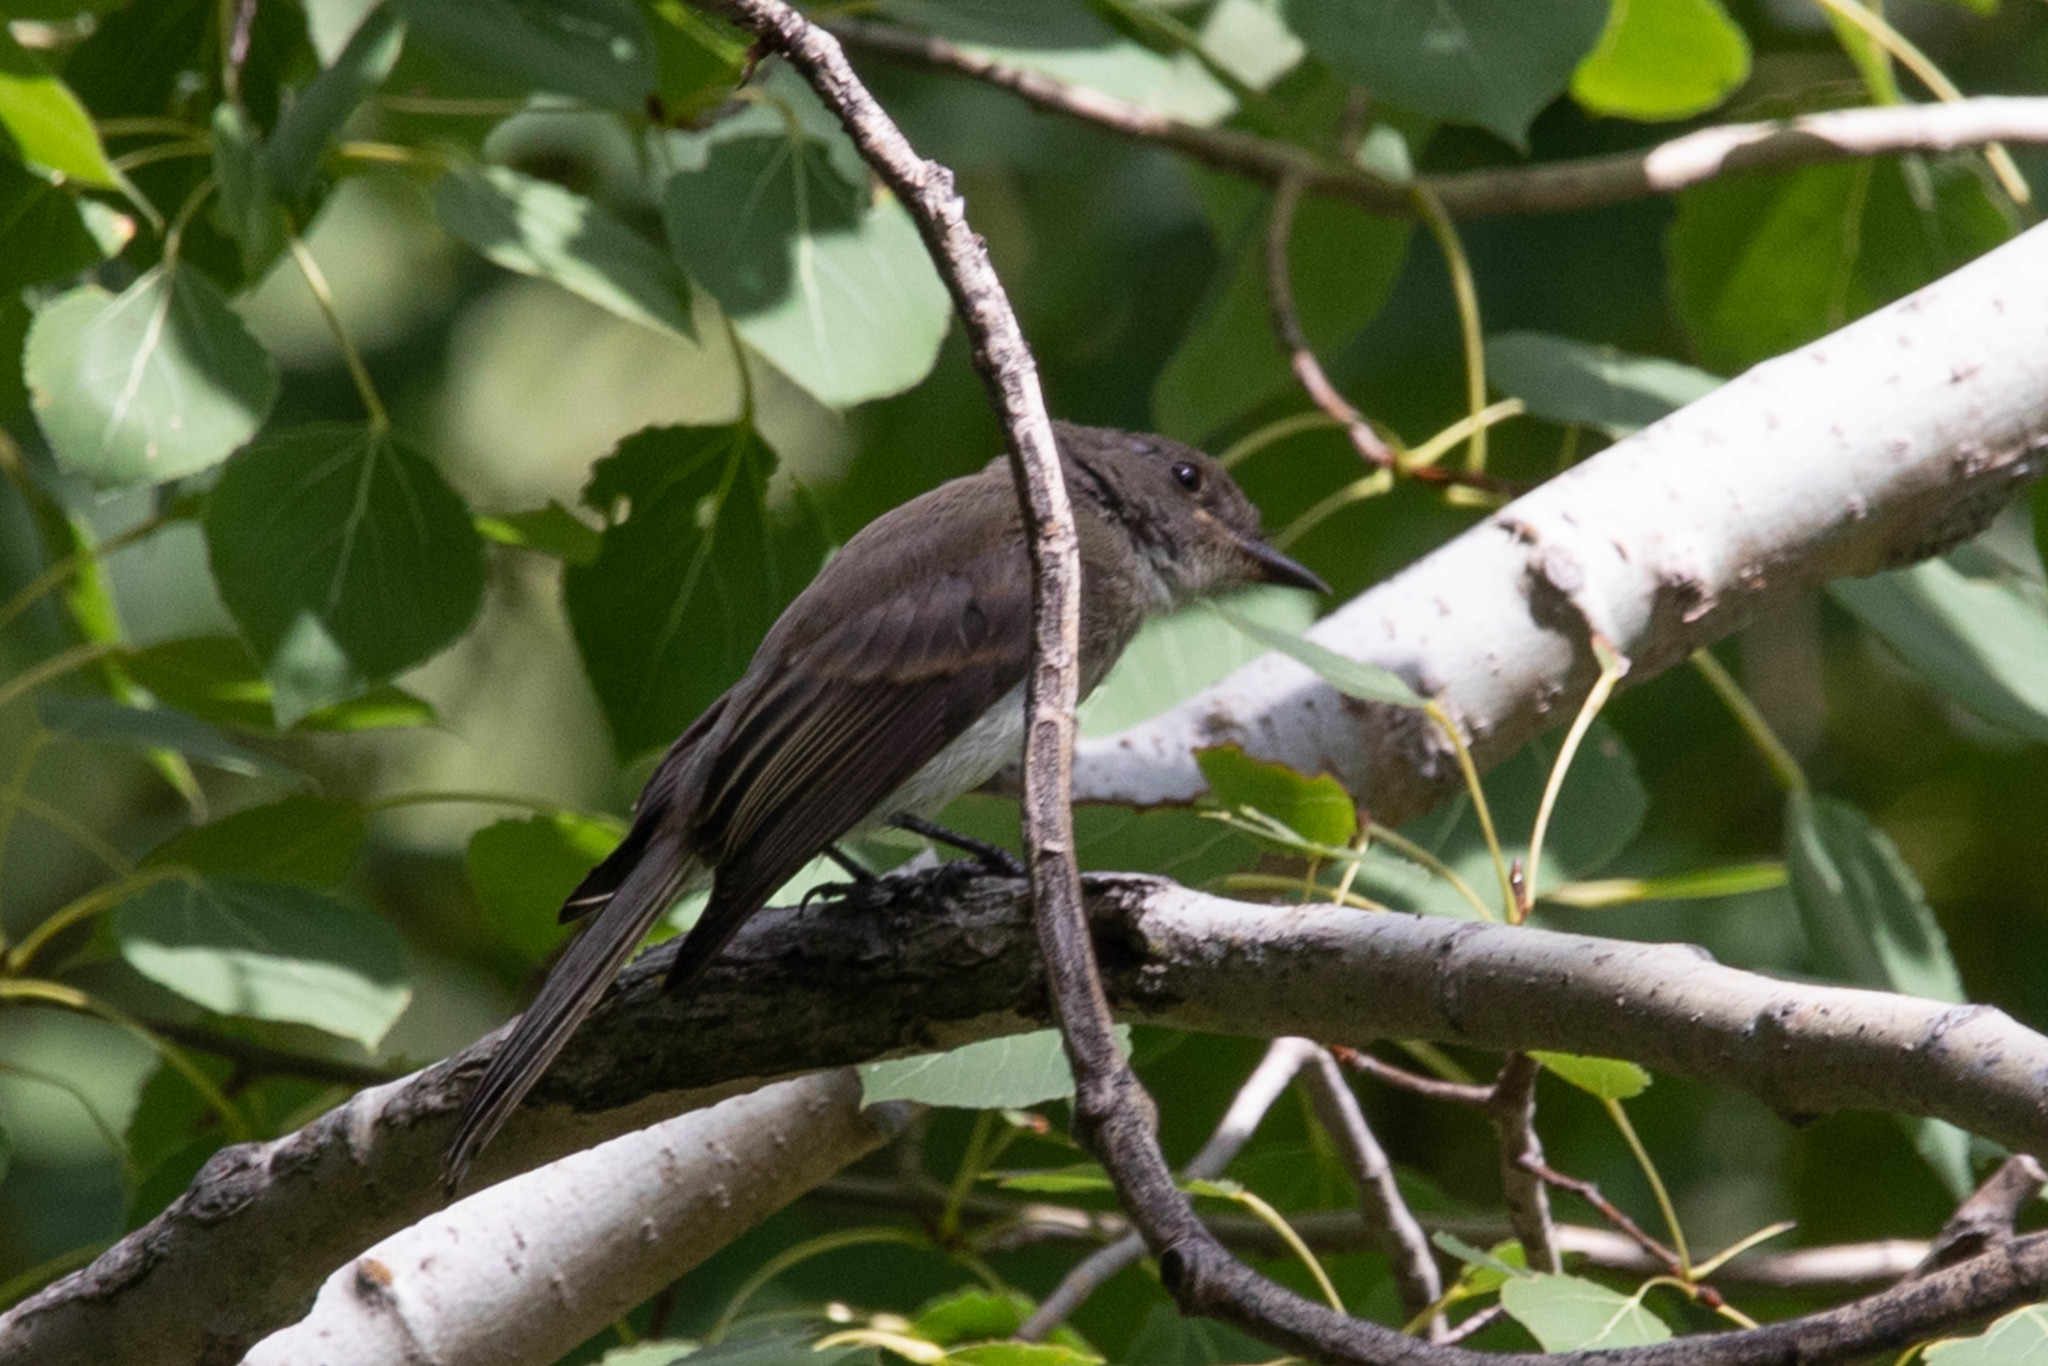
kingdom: Animalia
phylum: Chordata
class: Aves
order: Passeriformes
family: Tyrannidae
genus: Sayornis
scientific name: Sayornis phoebe
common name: Eastern phoebe
